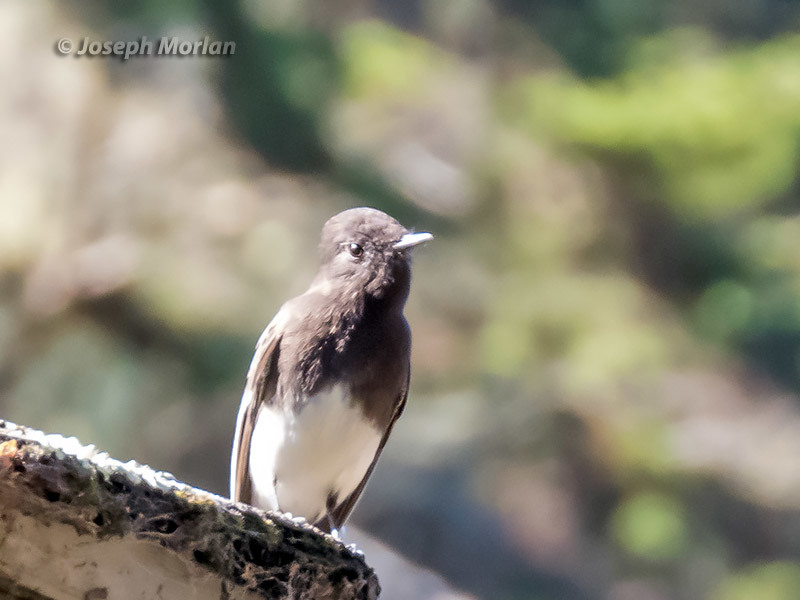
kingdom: Animalia
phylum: Chordata
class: Aves
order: Passeriformes
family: Tyrannidae
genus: Sayornis
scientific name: Sayornis nigricans
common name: Black phoebe
